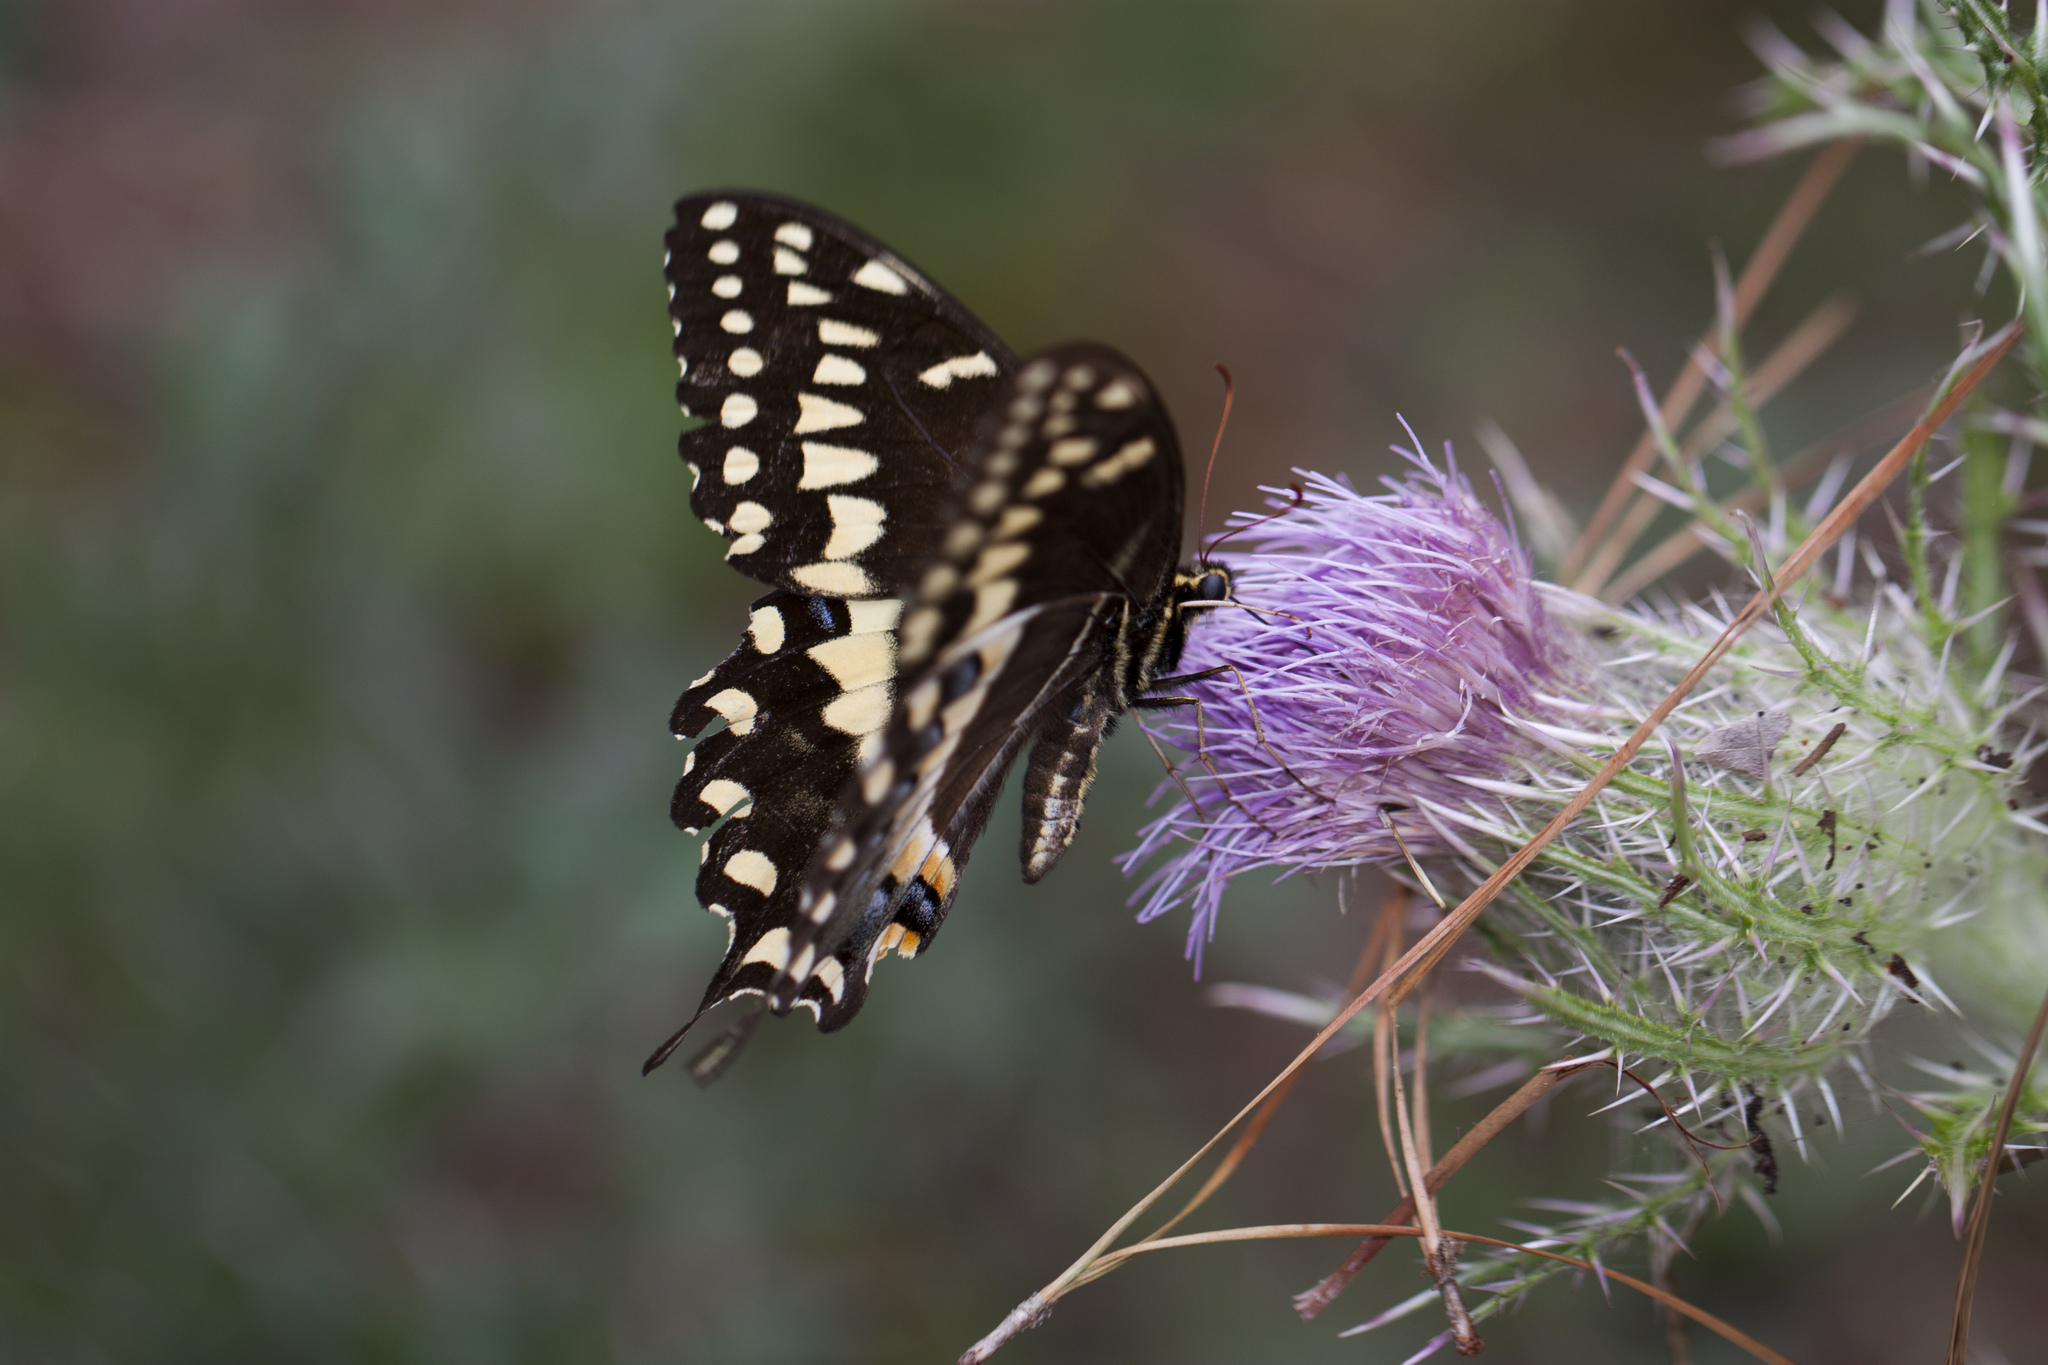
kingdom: Animalia
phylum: Arthropoda
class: Insecta
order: Lepidoptera
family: Papilionidae
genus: Papilio
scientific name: Papilio palamedes
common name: Palamedes swallowtail
